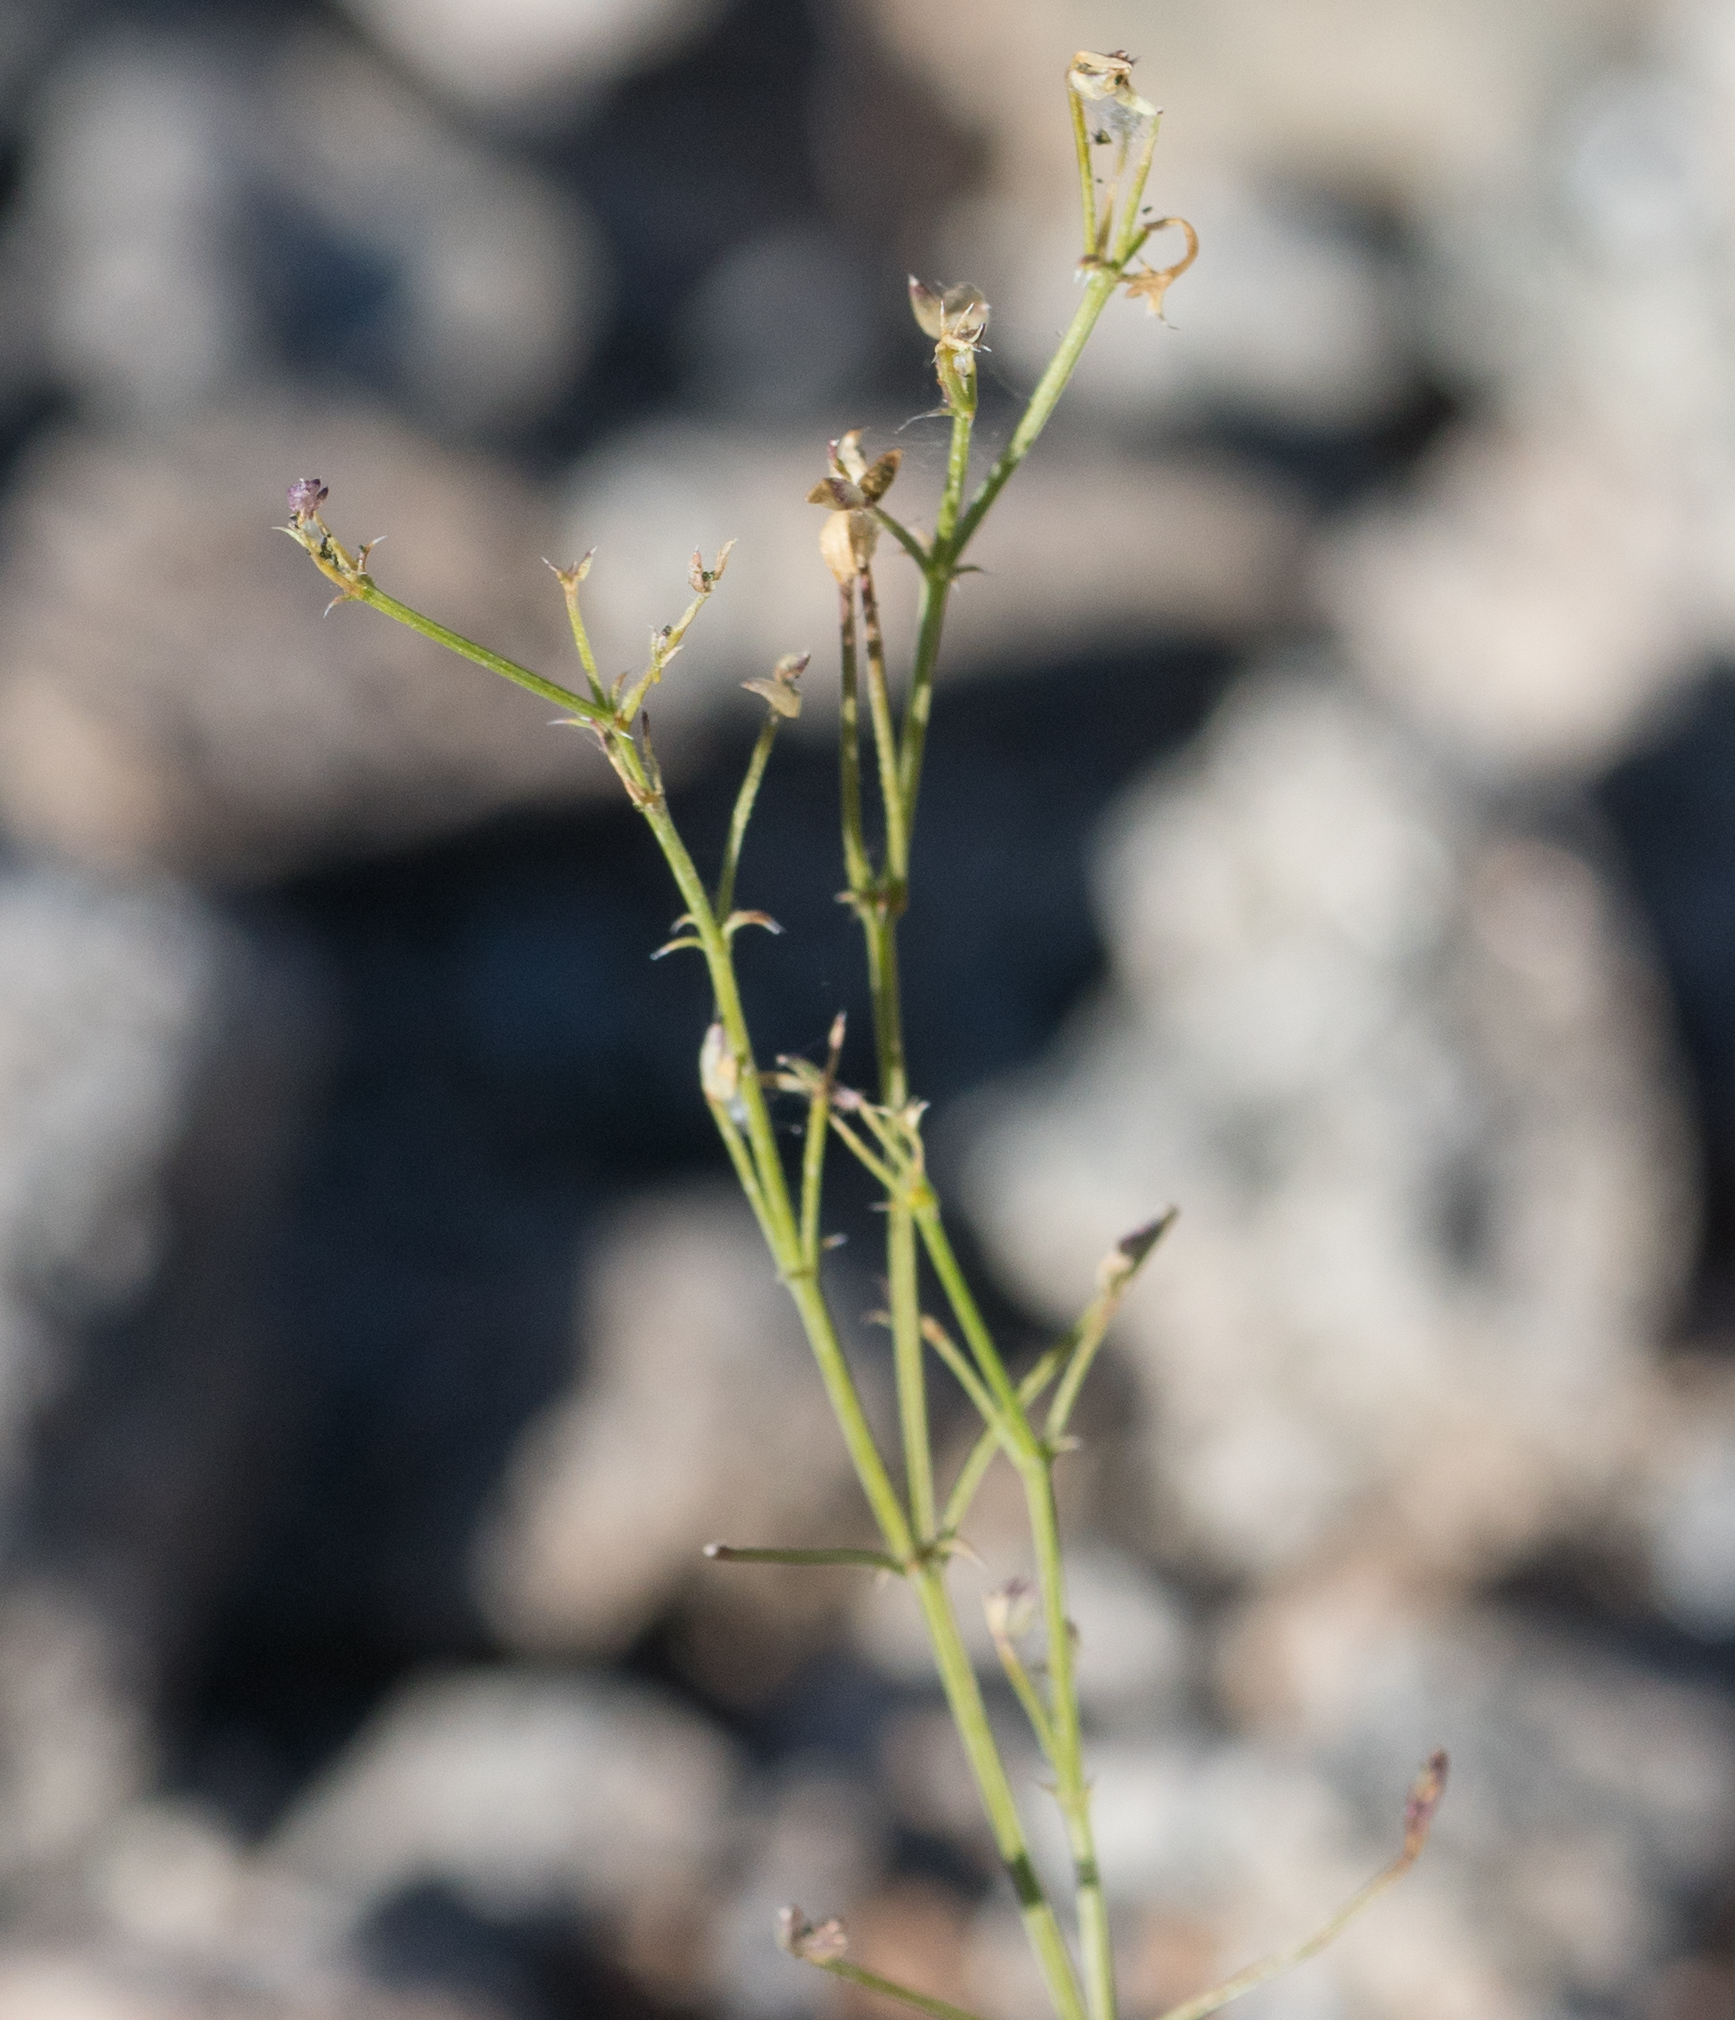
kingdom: Plantae
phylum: Tracheophyta
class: Magnoliopsida
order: Zygophyllales
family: Zygophyllaceae
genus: Fagonia
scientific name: Fagonia laevis
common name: California fagonbush
